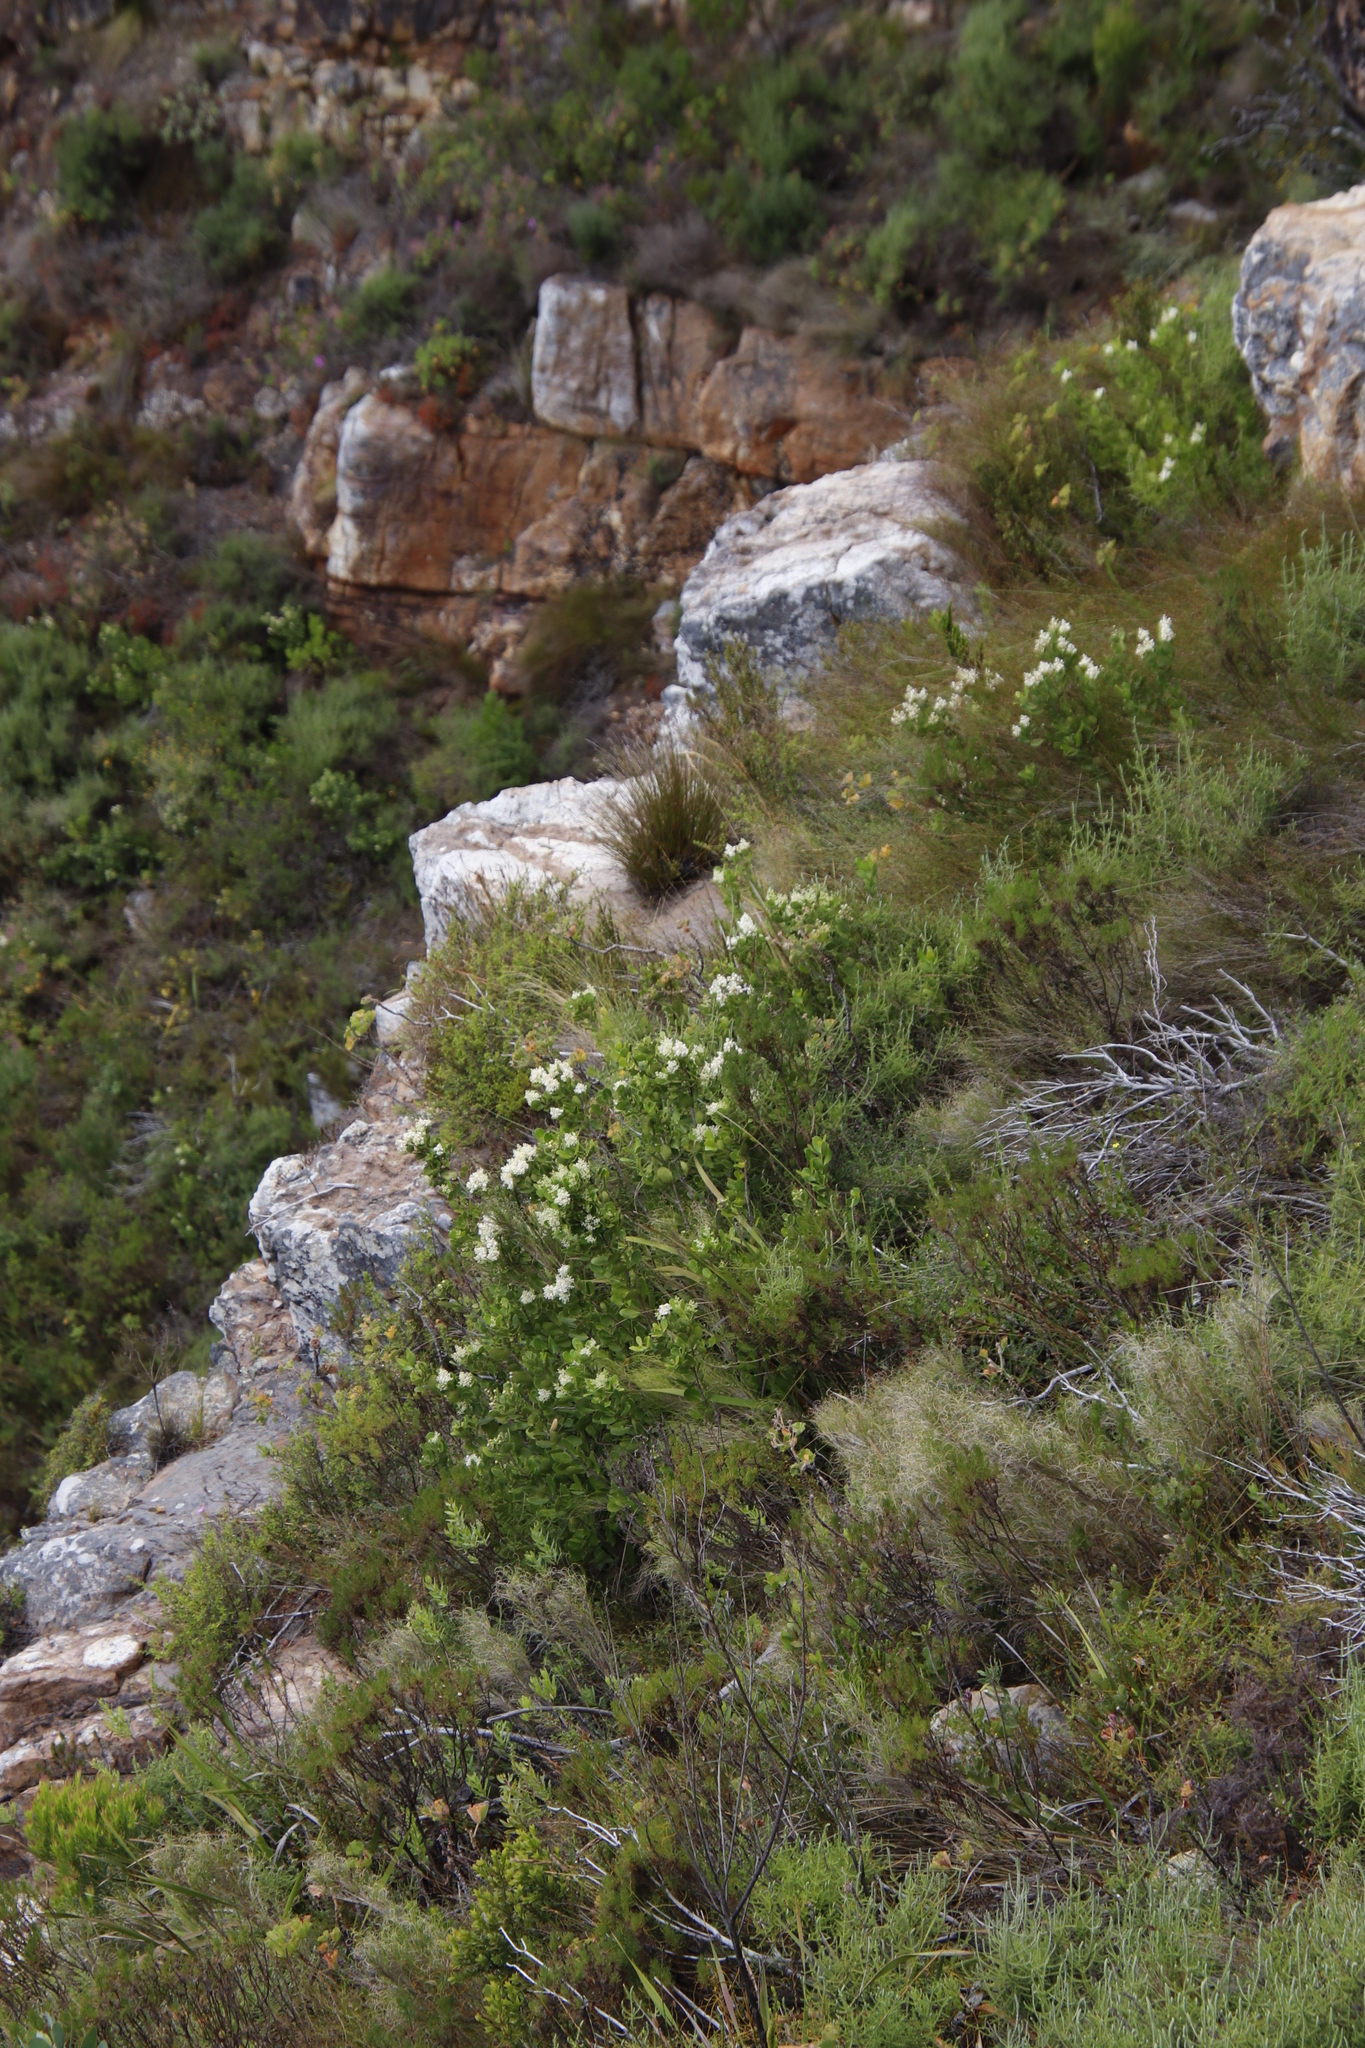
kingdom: Plantae
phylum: Tracheophyta
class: Magnoliopsida
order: Lamiales
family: Oleaceae
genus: Olea
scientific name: Olea capensis
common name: Black ironwood
